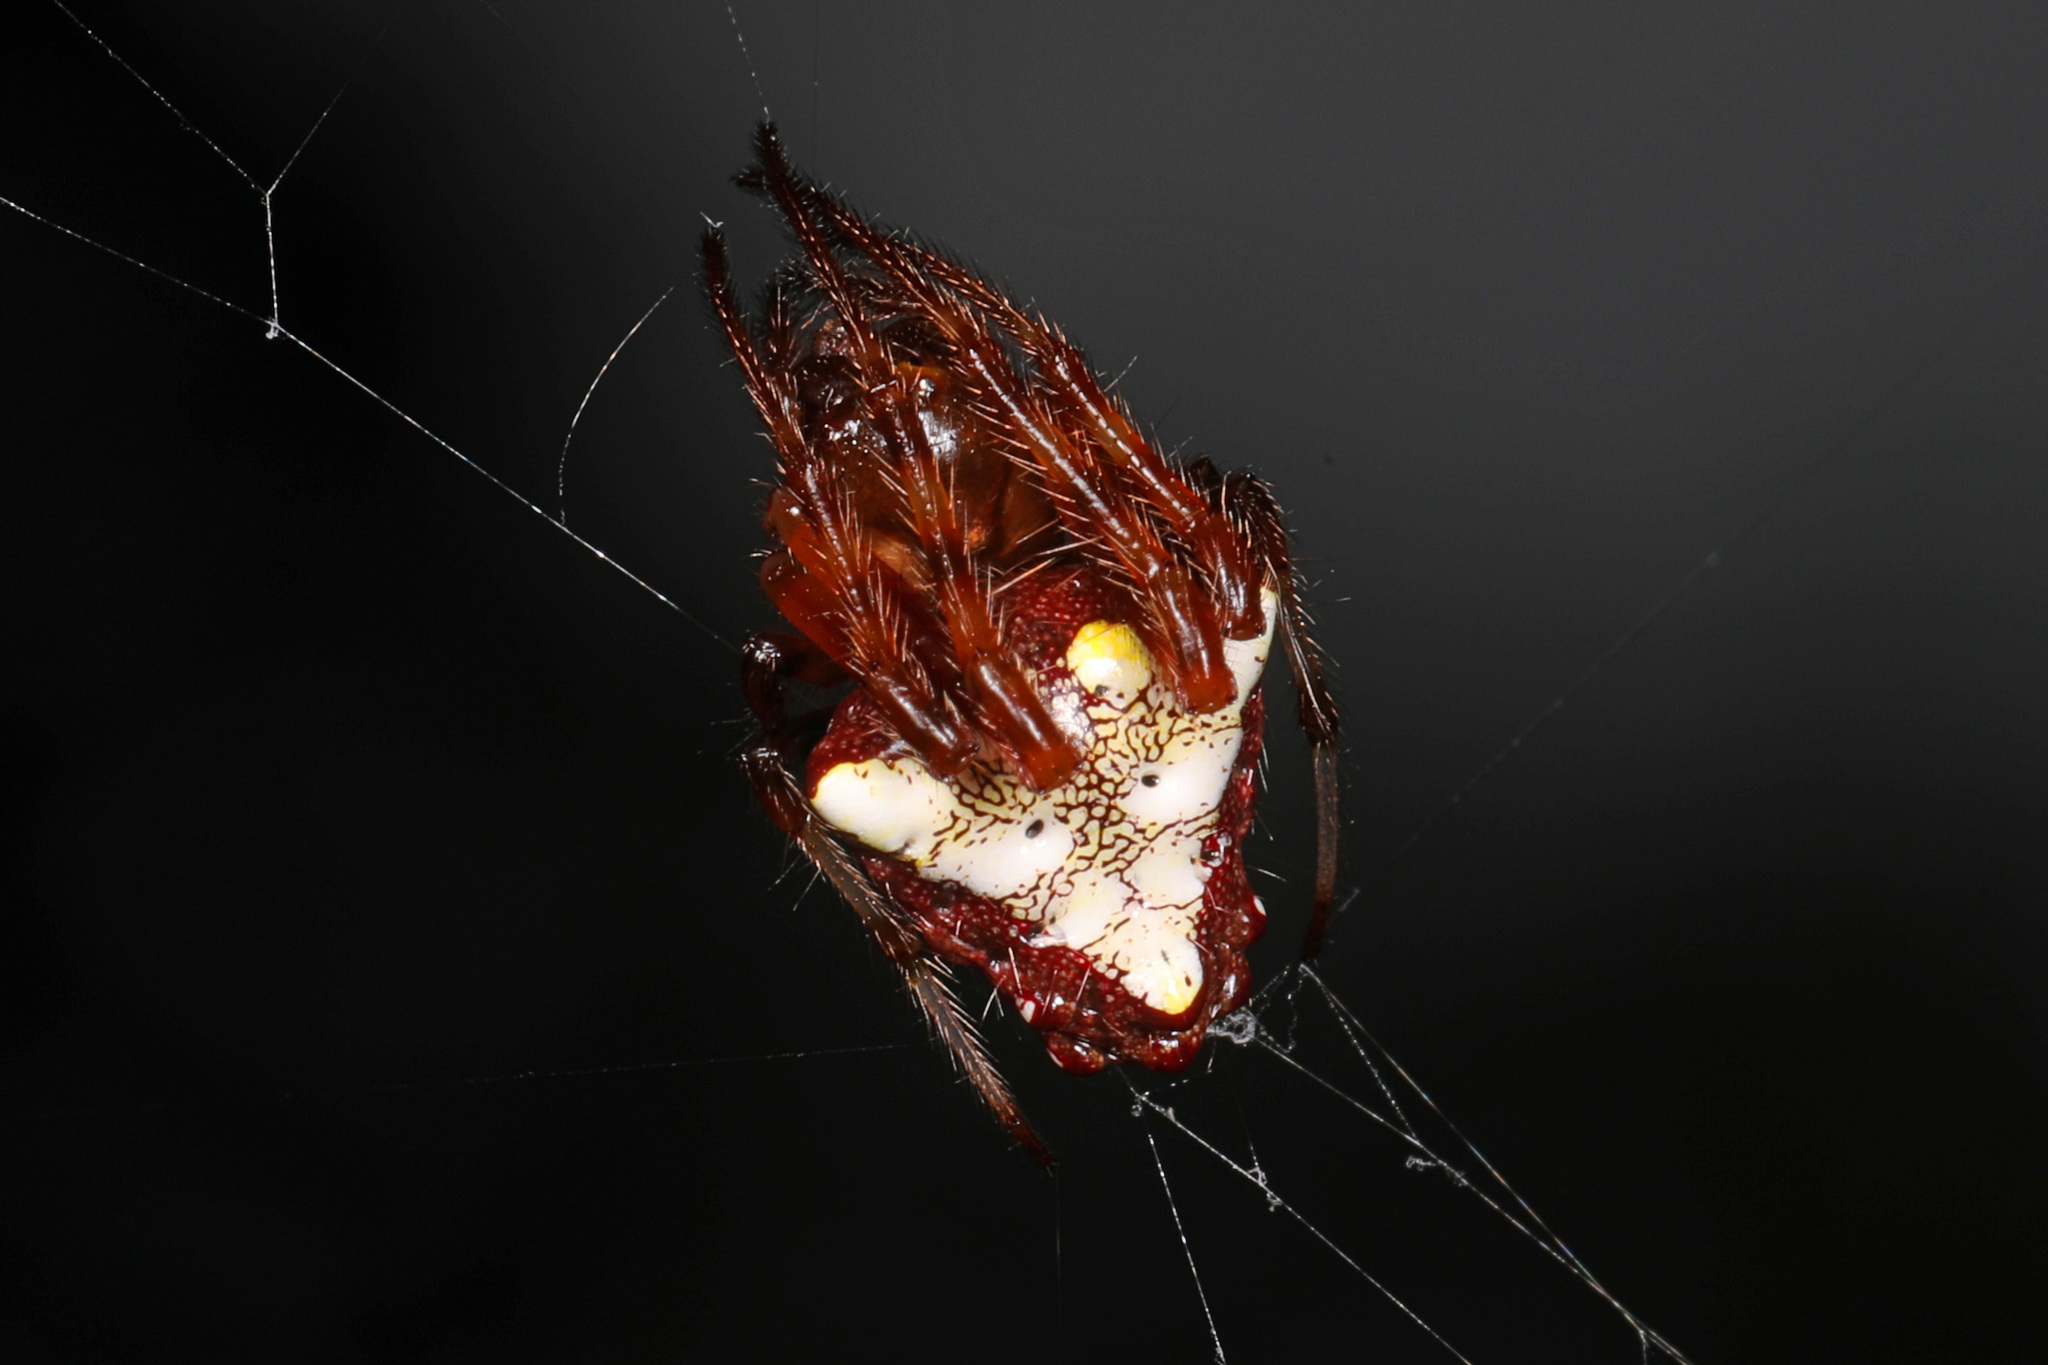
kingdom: Animalia
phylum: Arthropoda
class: Arachnida
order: Araneae
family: Araneidae
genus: Verrucosa
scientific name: Verrucosa arenata
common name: Orb weavers
